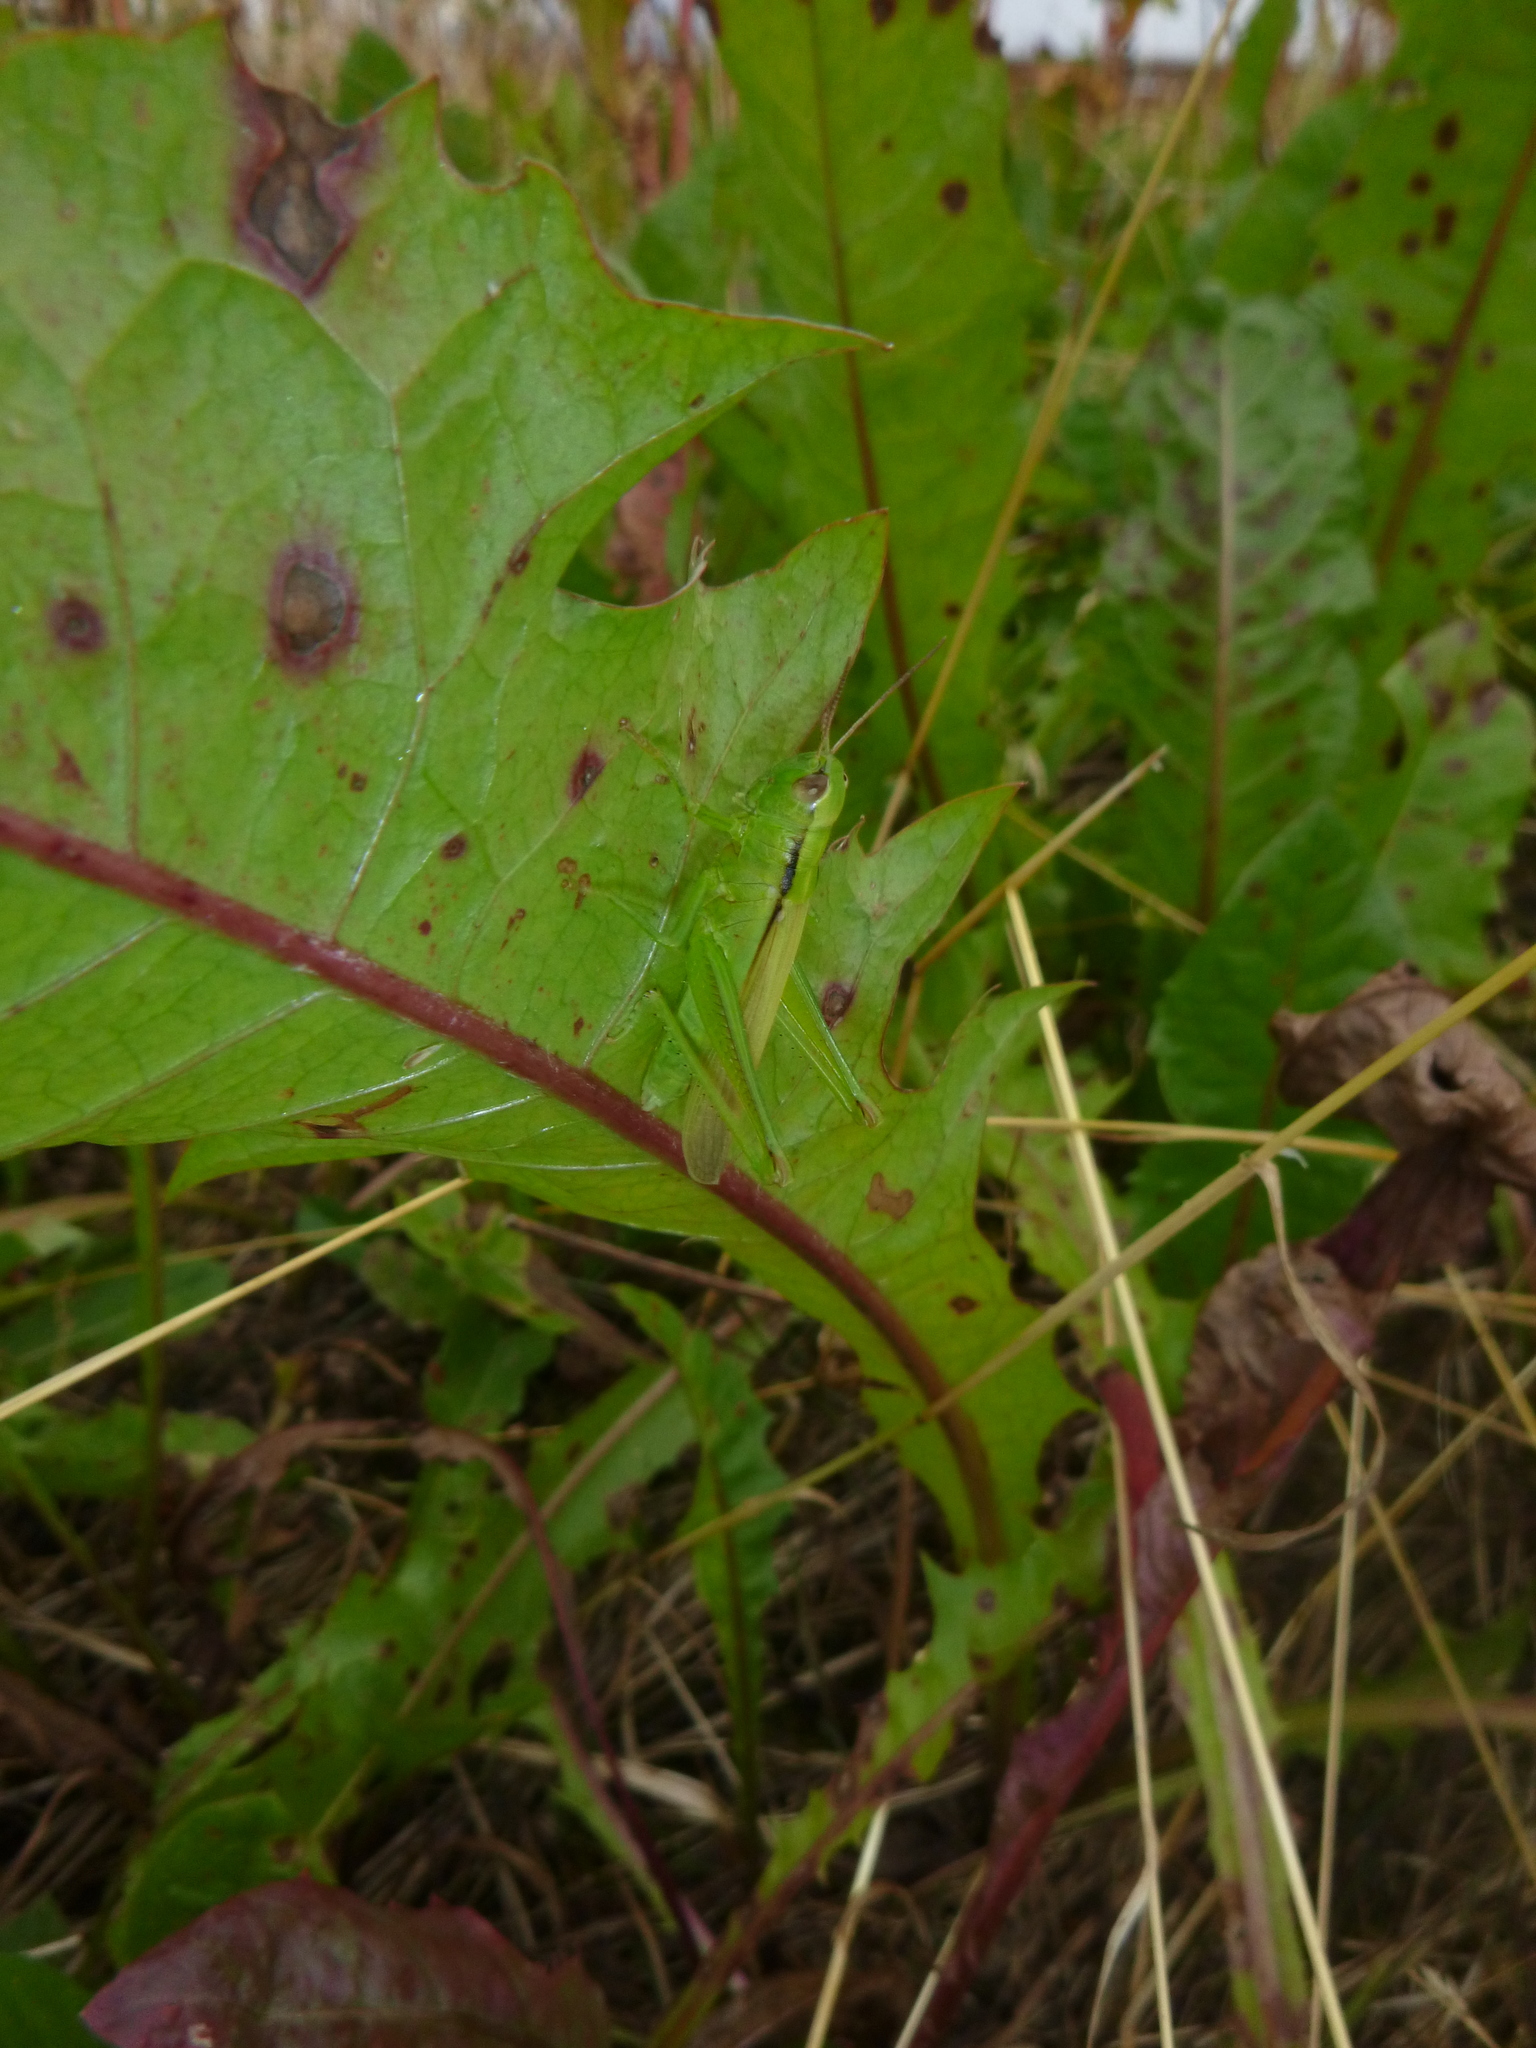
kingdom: Animalia
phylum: Arthropoda
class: Insecta
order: Orthoptera
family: Acrididae
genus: Mecostethus
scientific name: Mecostethus parapleurus
